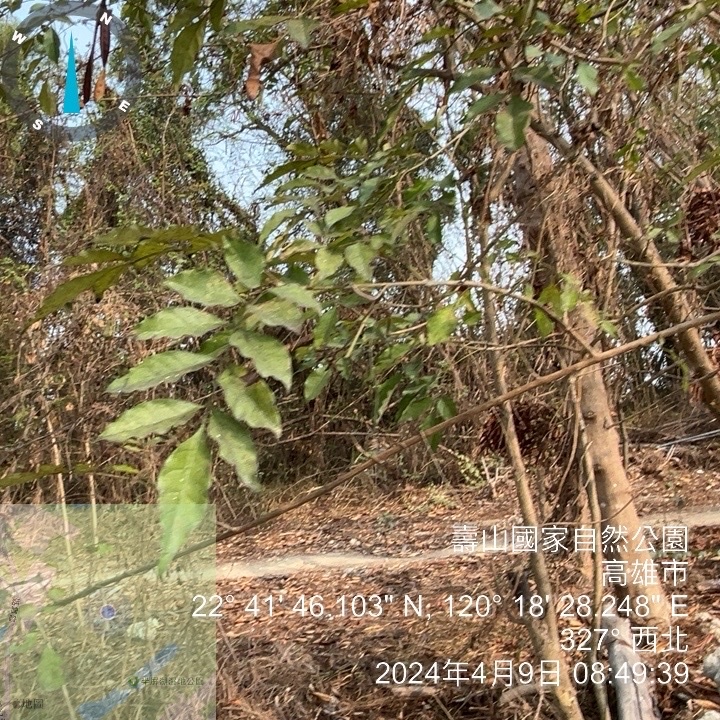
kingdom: Plantae
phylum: Tracheophyta
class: Magnoliopsida
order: Lamiales
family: Oleaceae
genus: Fraxinus
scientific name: Fraxinus griffithii
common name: Himalayan ash
